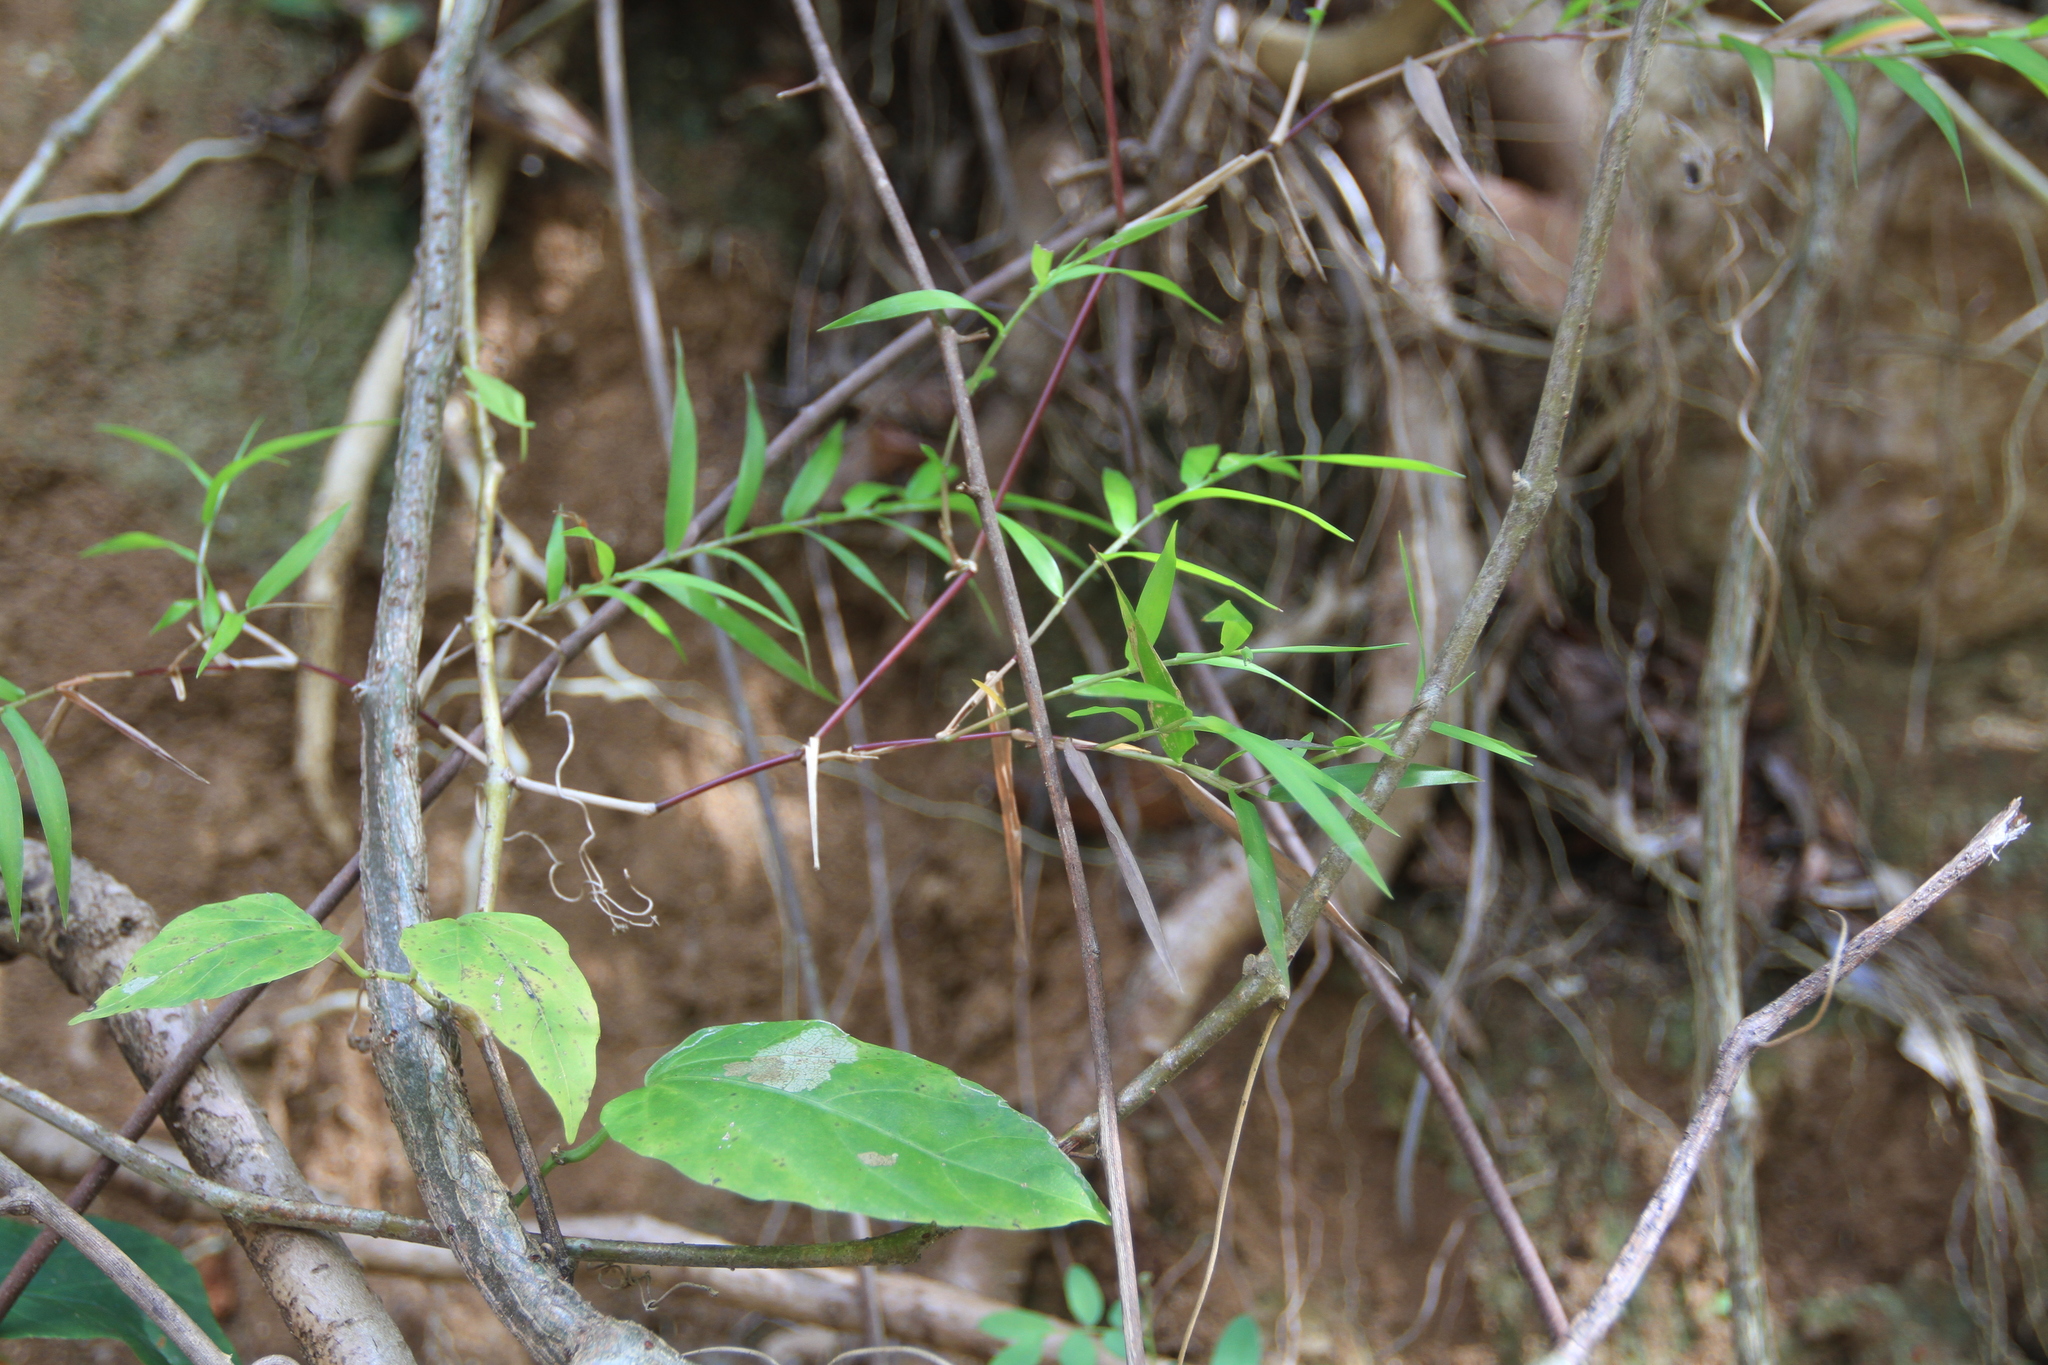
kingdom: Plantae
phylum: Tracheophyta
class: Liliopsida
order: Poales
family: Poaceae
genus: Lasiacis
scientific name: Lasiacis divaricata
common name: Smallcane
